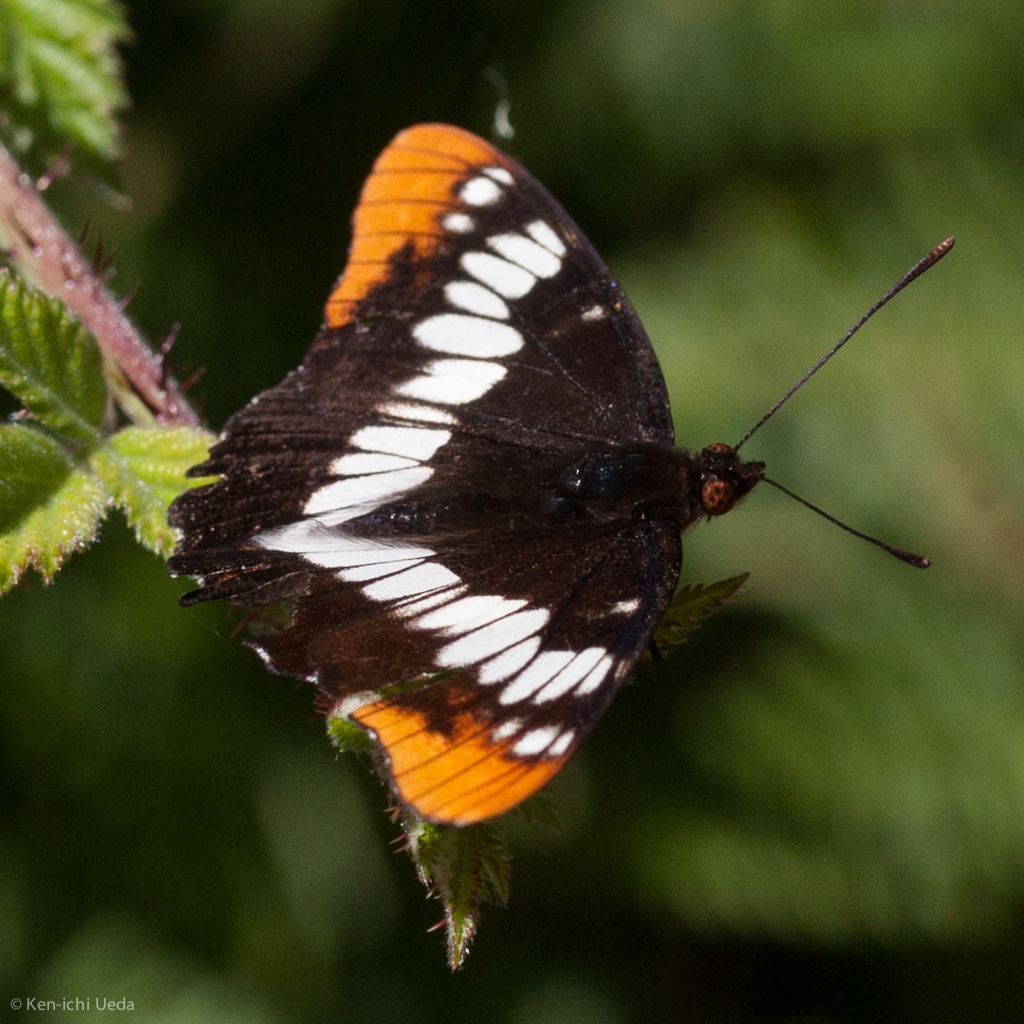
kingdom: Animalia
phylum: Arthropoda
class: Insecta
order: Lepidoptera
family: Nymphalidae
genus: Limenitis
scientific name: Limenitis lorquini
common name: Lorquin's admiral
